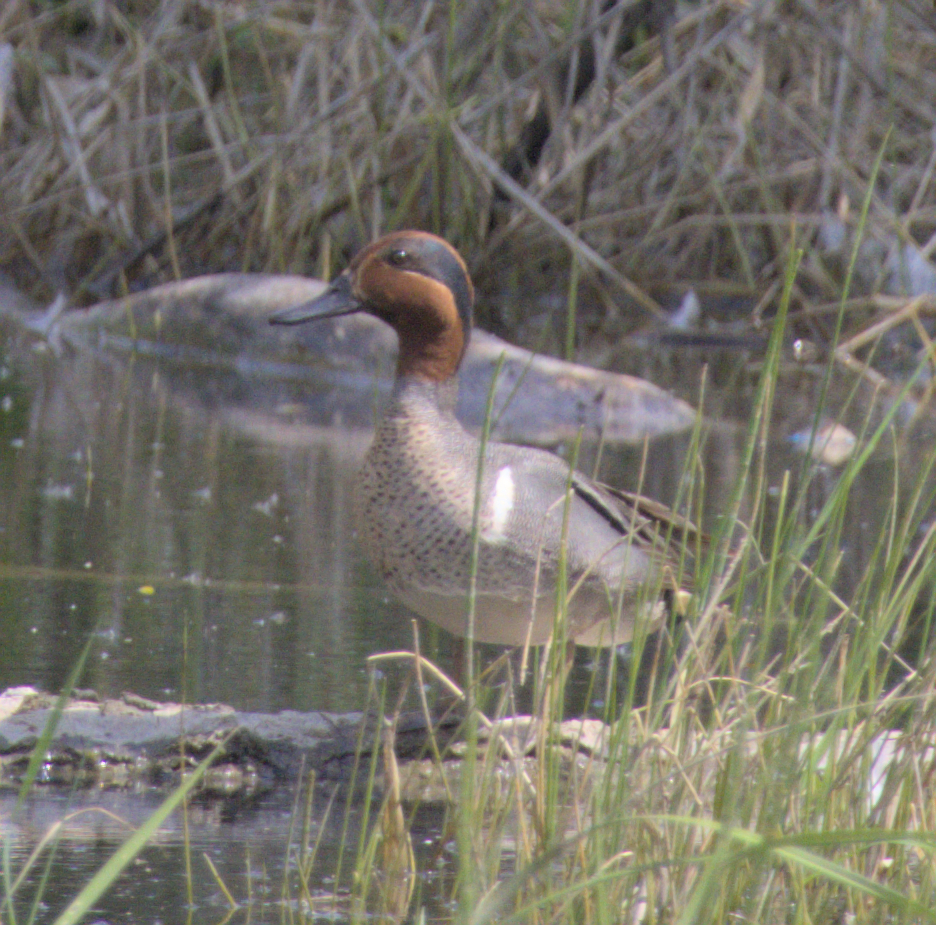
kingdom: Animalia
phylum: Chordata
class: Aves
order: Anseriformes
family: Anatidae
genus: Anas
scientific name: Anas crecca
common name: Eurasian teal
